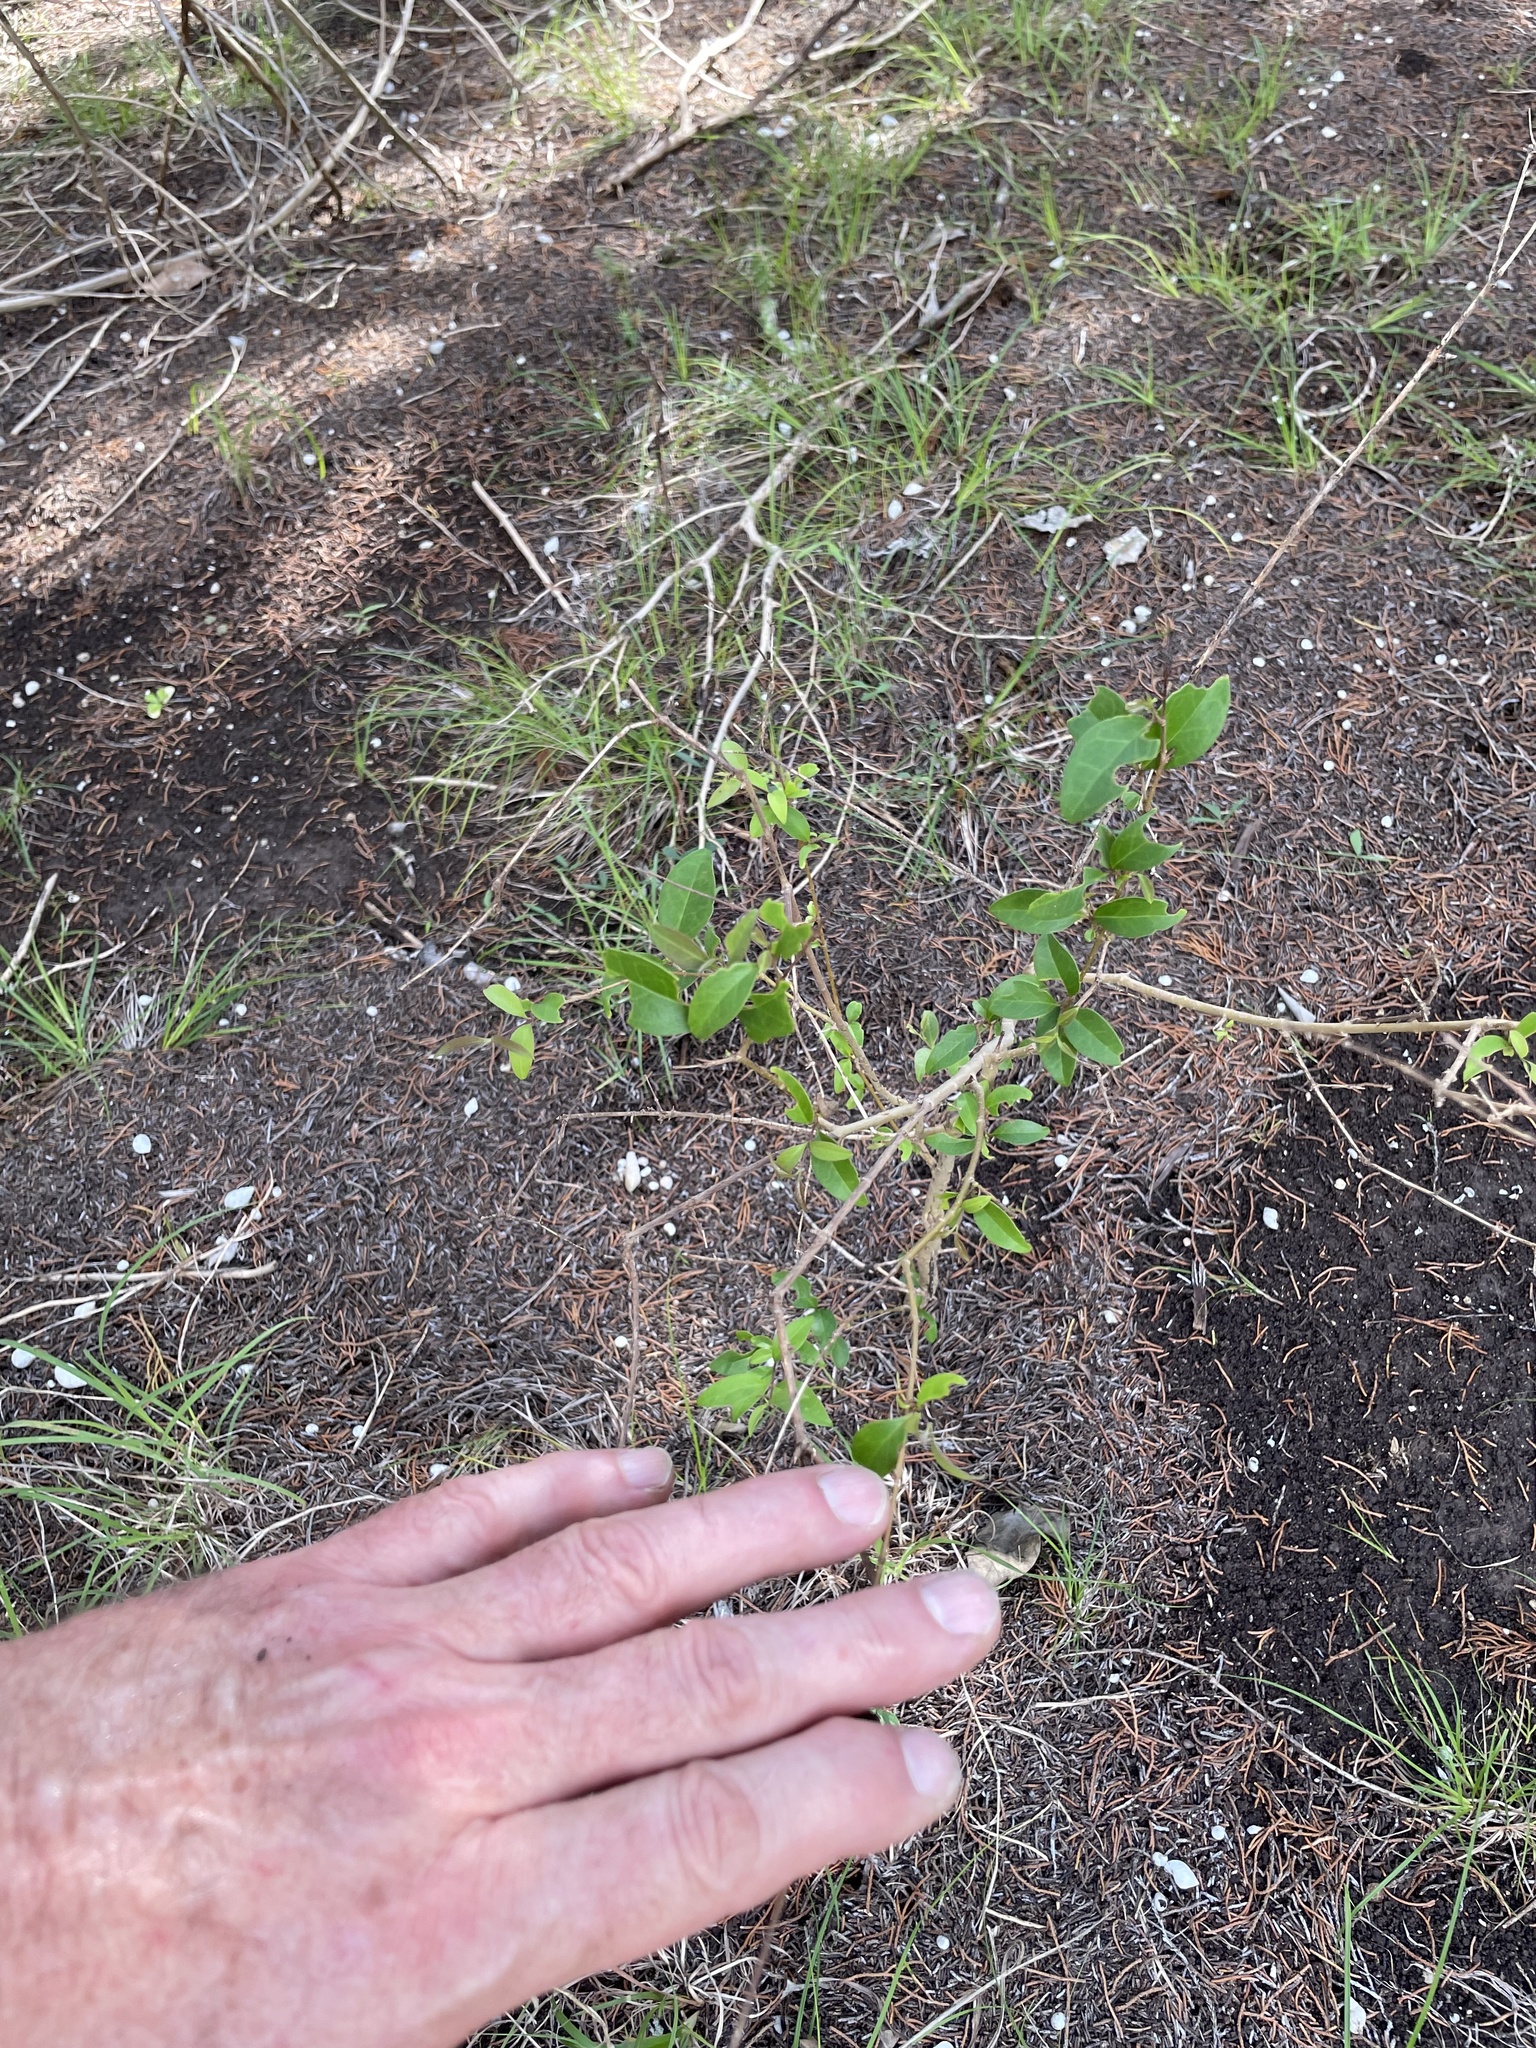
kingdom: Plantae
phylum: Tracheophyta
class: Magnoliopsida
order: Lamiales
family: Oleaceae
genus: Ligustrum
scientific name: Ligustrum lucidum
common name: Glossy privet
